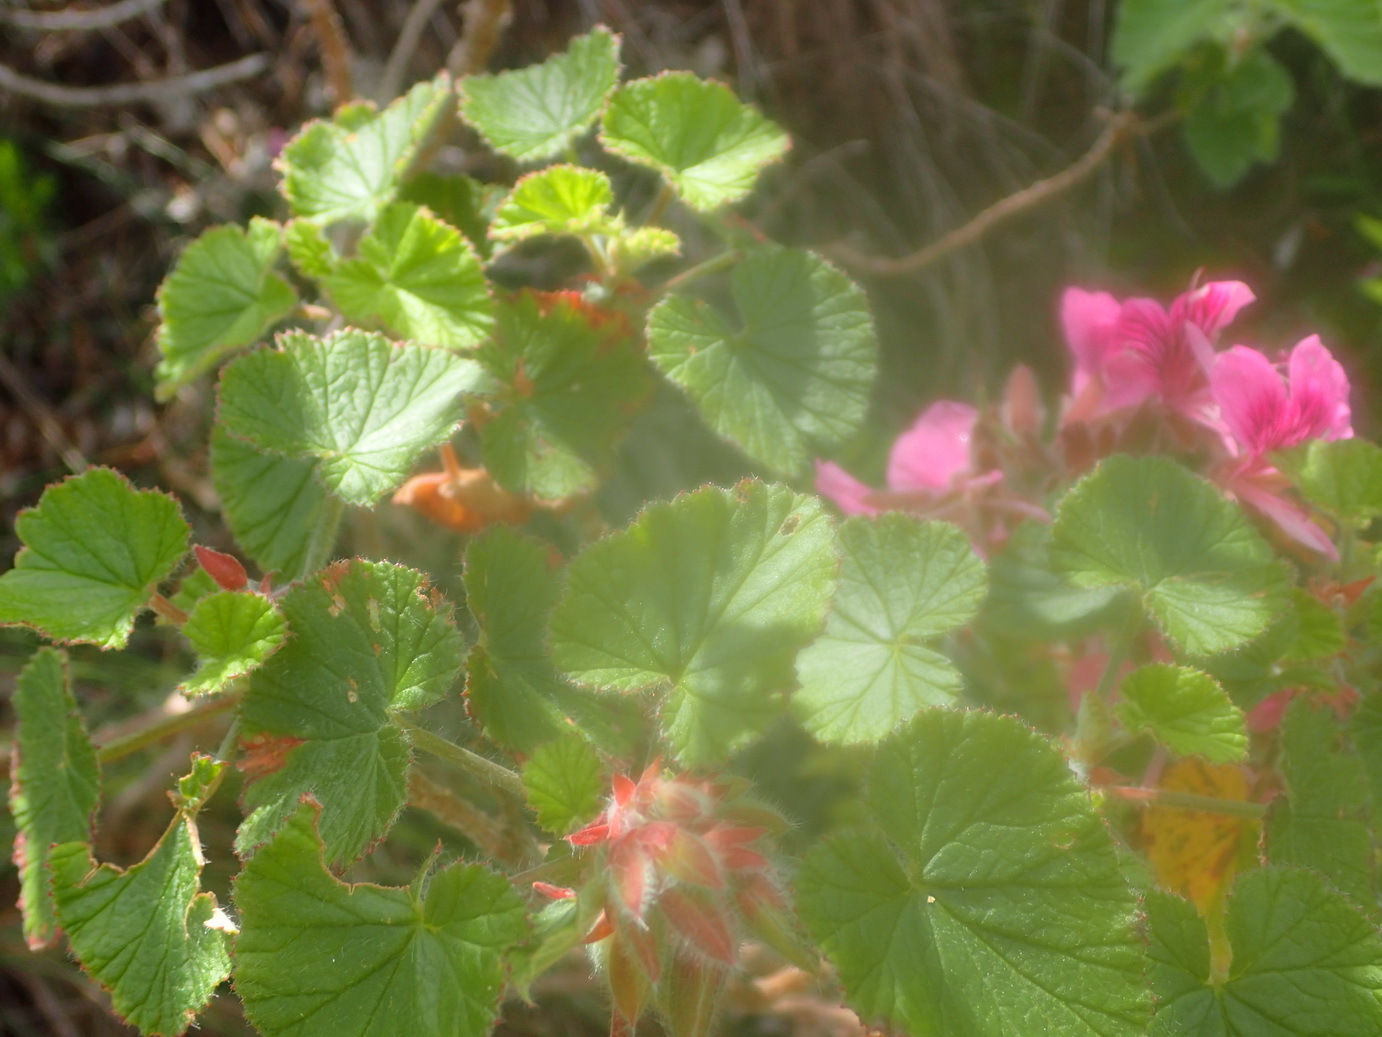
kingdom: Plantae
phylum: Tracheophyta
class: Magnoliopsida
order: Geraniales
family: Geraniaceae
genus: Pelargonium
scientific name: Pelargonium cordifolium
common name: Heart-leaf pelargonium
